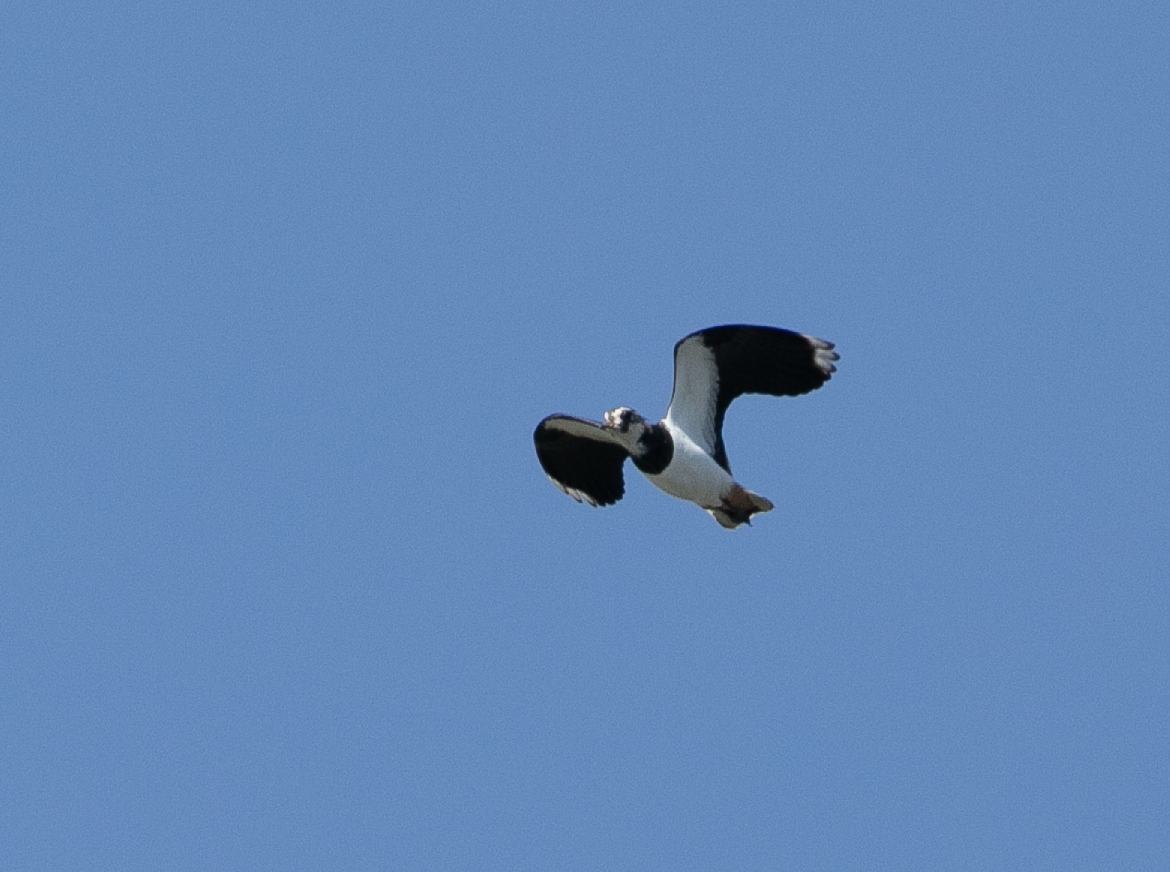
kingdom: Animalia
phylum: Chordata
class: Aves
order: Charadriiformes
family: Charadriidae
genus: Vanellus
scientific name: Vanellus vanellus
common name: Northern lapwing
